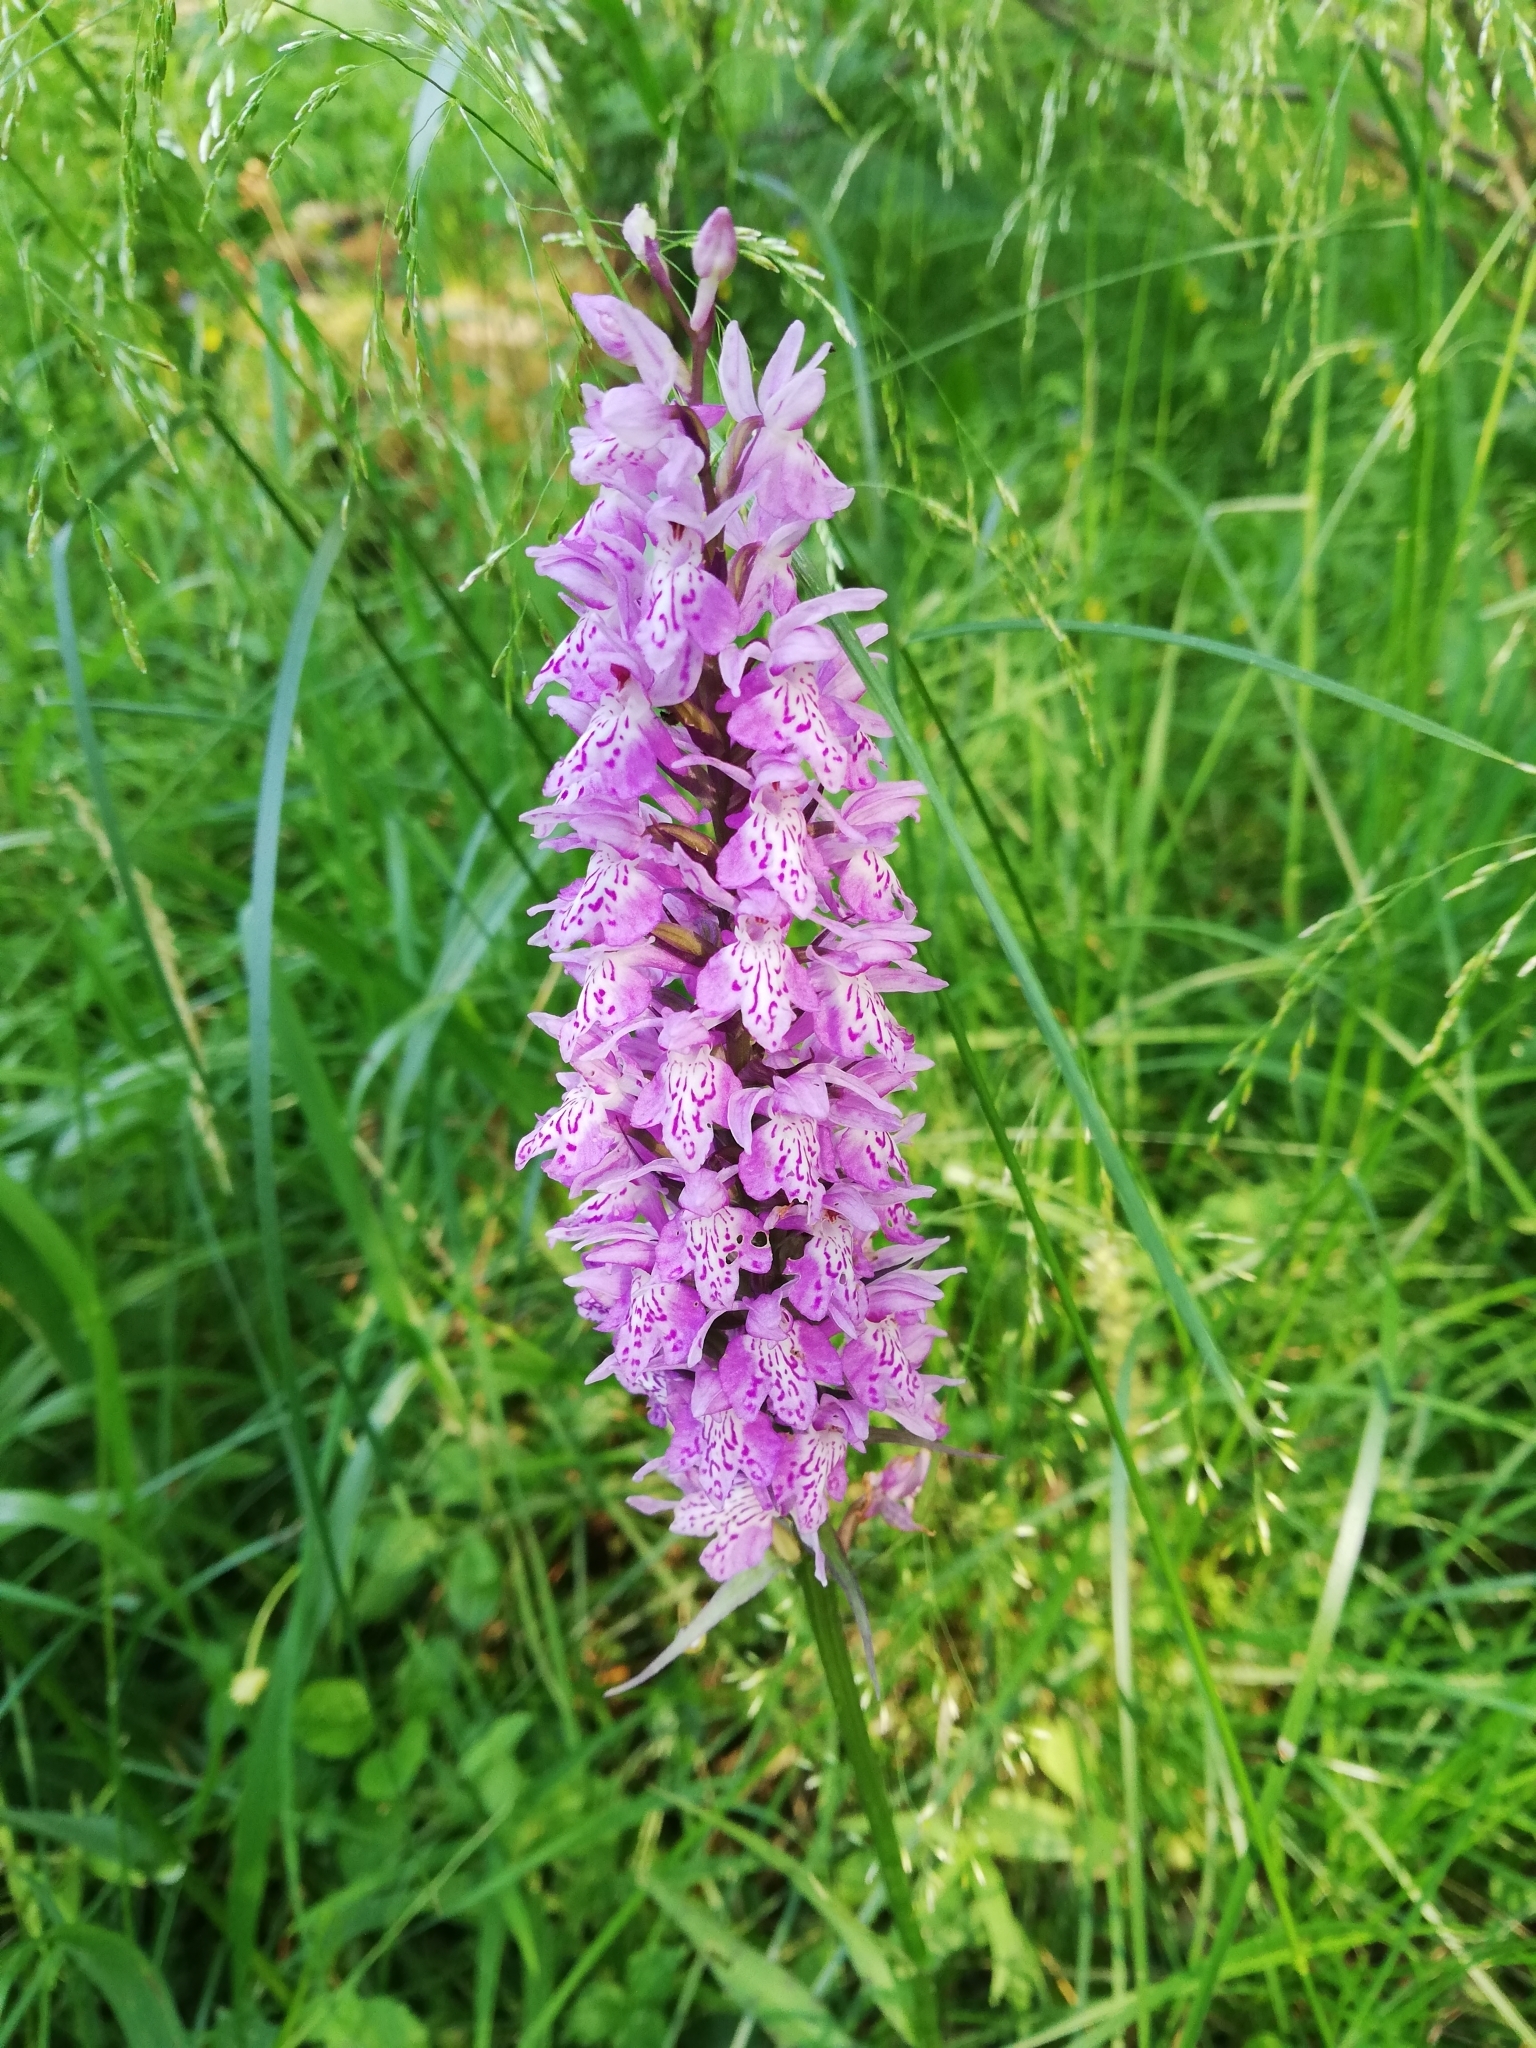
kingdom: Plantae
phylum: Tracheophyta
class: Liliopsida
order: Asparagales
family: Orchidaceae
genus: Dactylorhiza
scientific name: Dactylorhiza maculata
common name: Heath spotted-orchid
